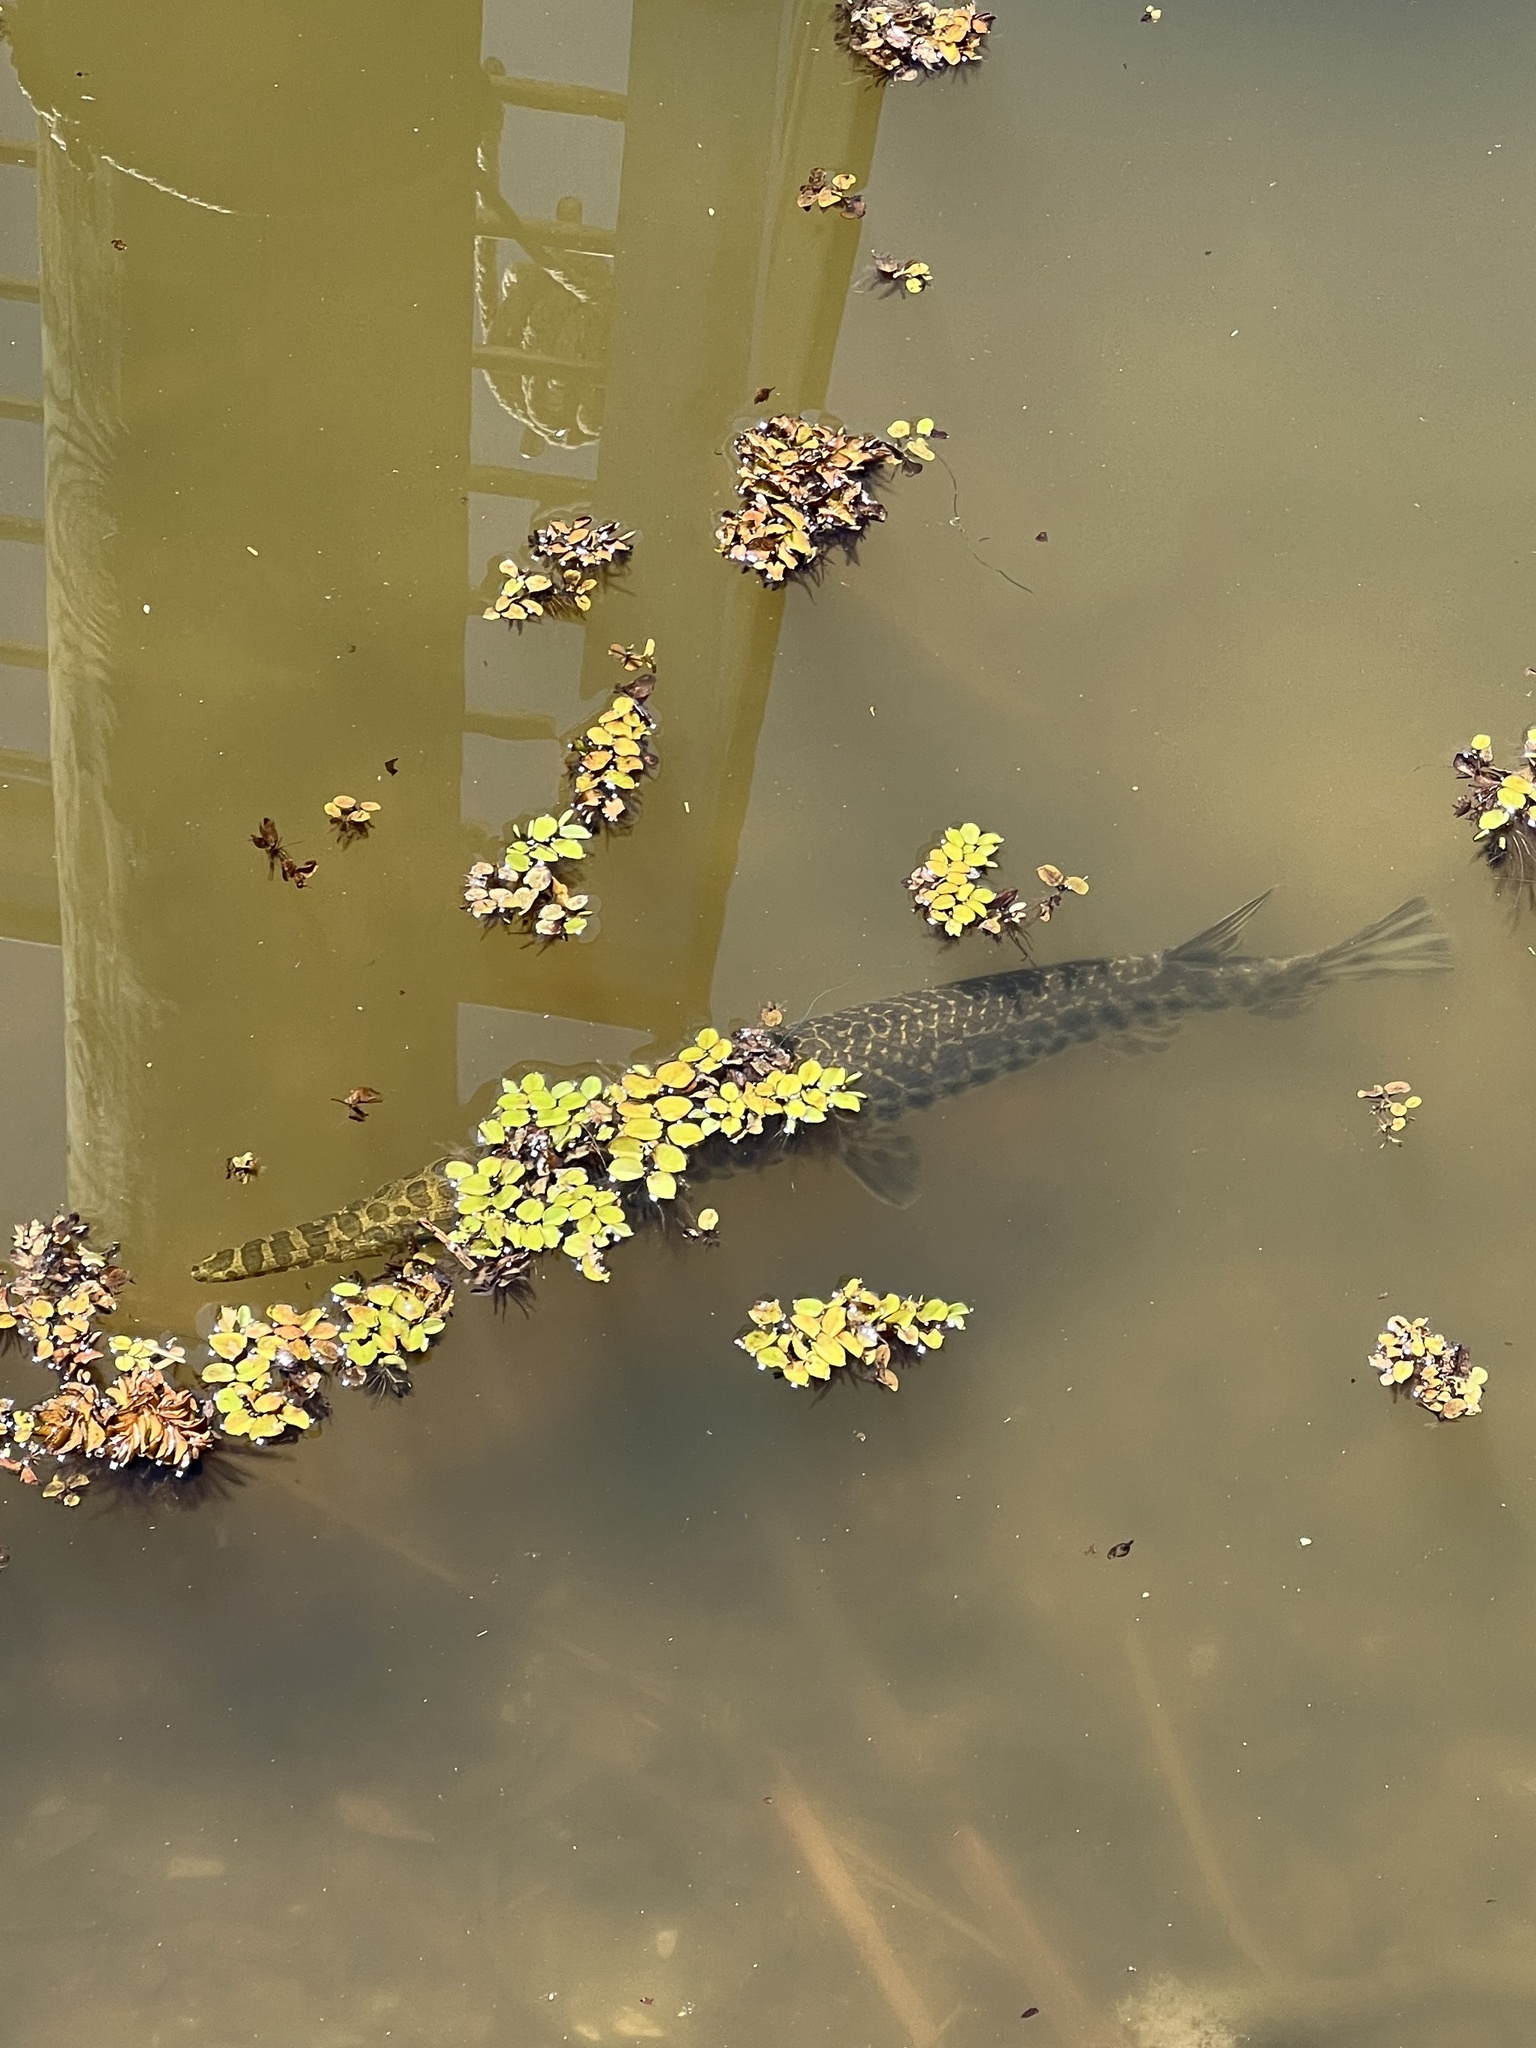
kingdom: Animalia
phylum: Chordata
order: Lepisosteiformes
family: Lepisosteidae
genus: Lepisosteus
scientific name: Lepisosteus oculatus
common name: Spotted gar
